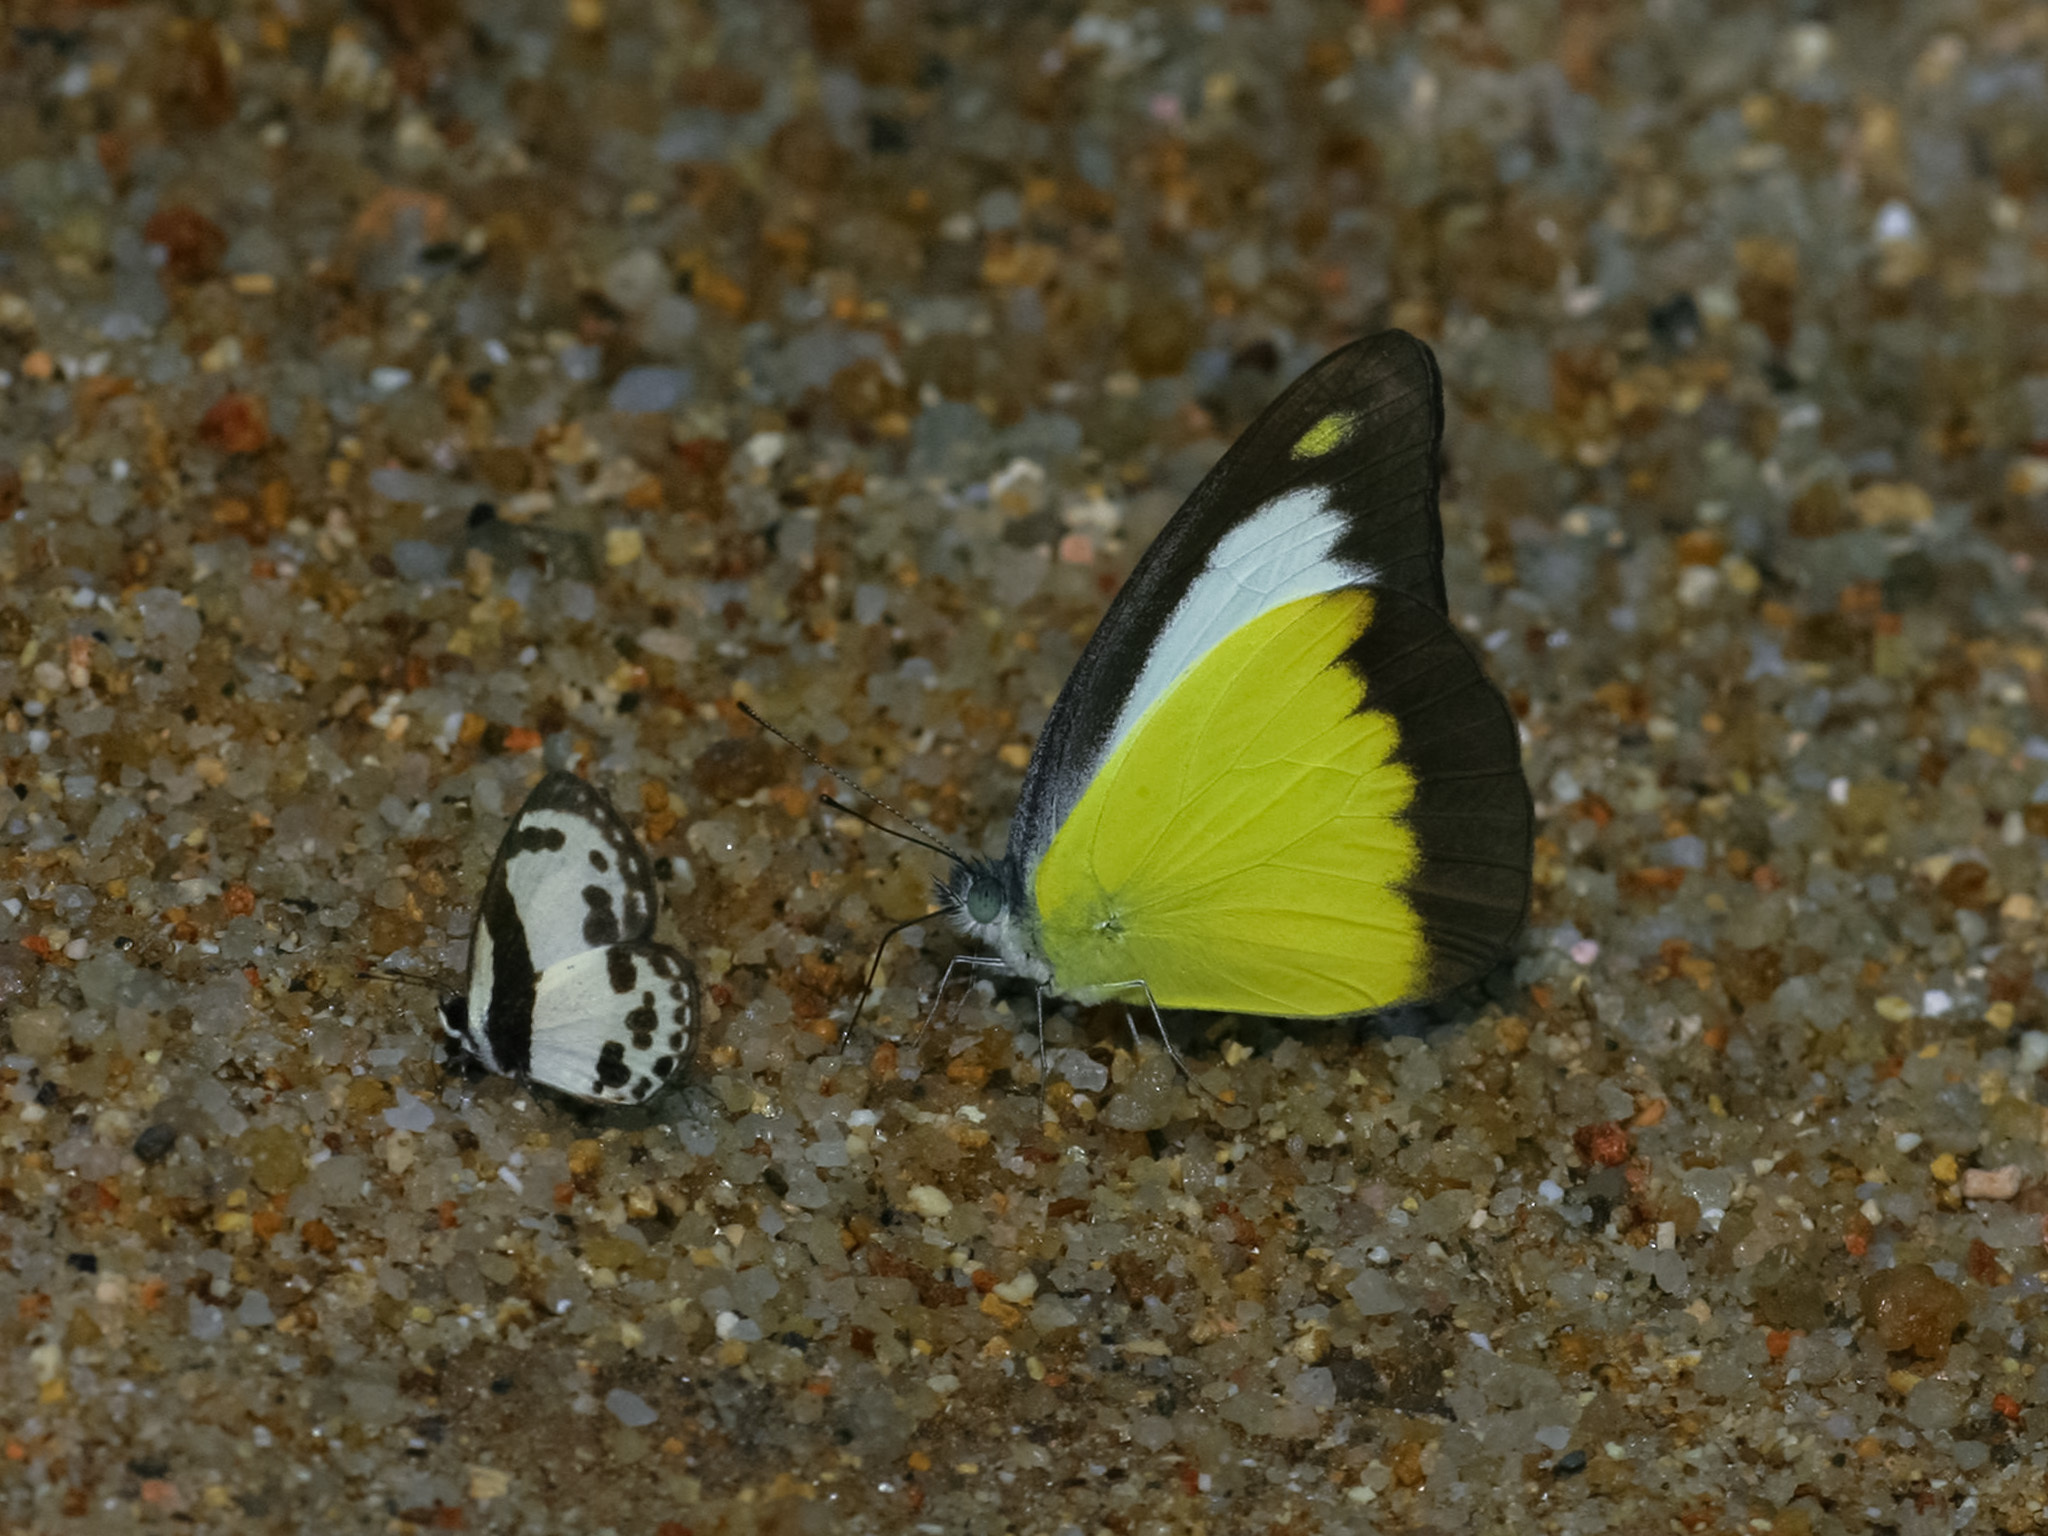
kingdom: Animalia
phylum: Arthropoda
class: Insecta
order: Lepidoptera
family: Pieridae
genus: Appias
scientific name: Appias lyncida
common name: Chocolate albatross
